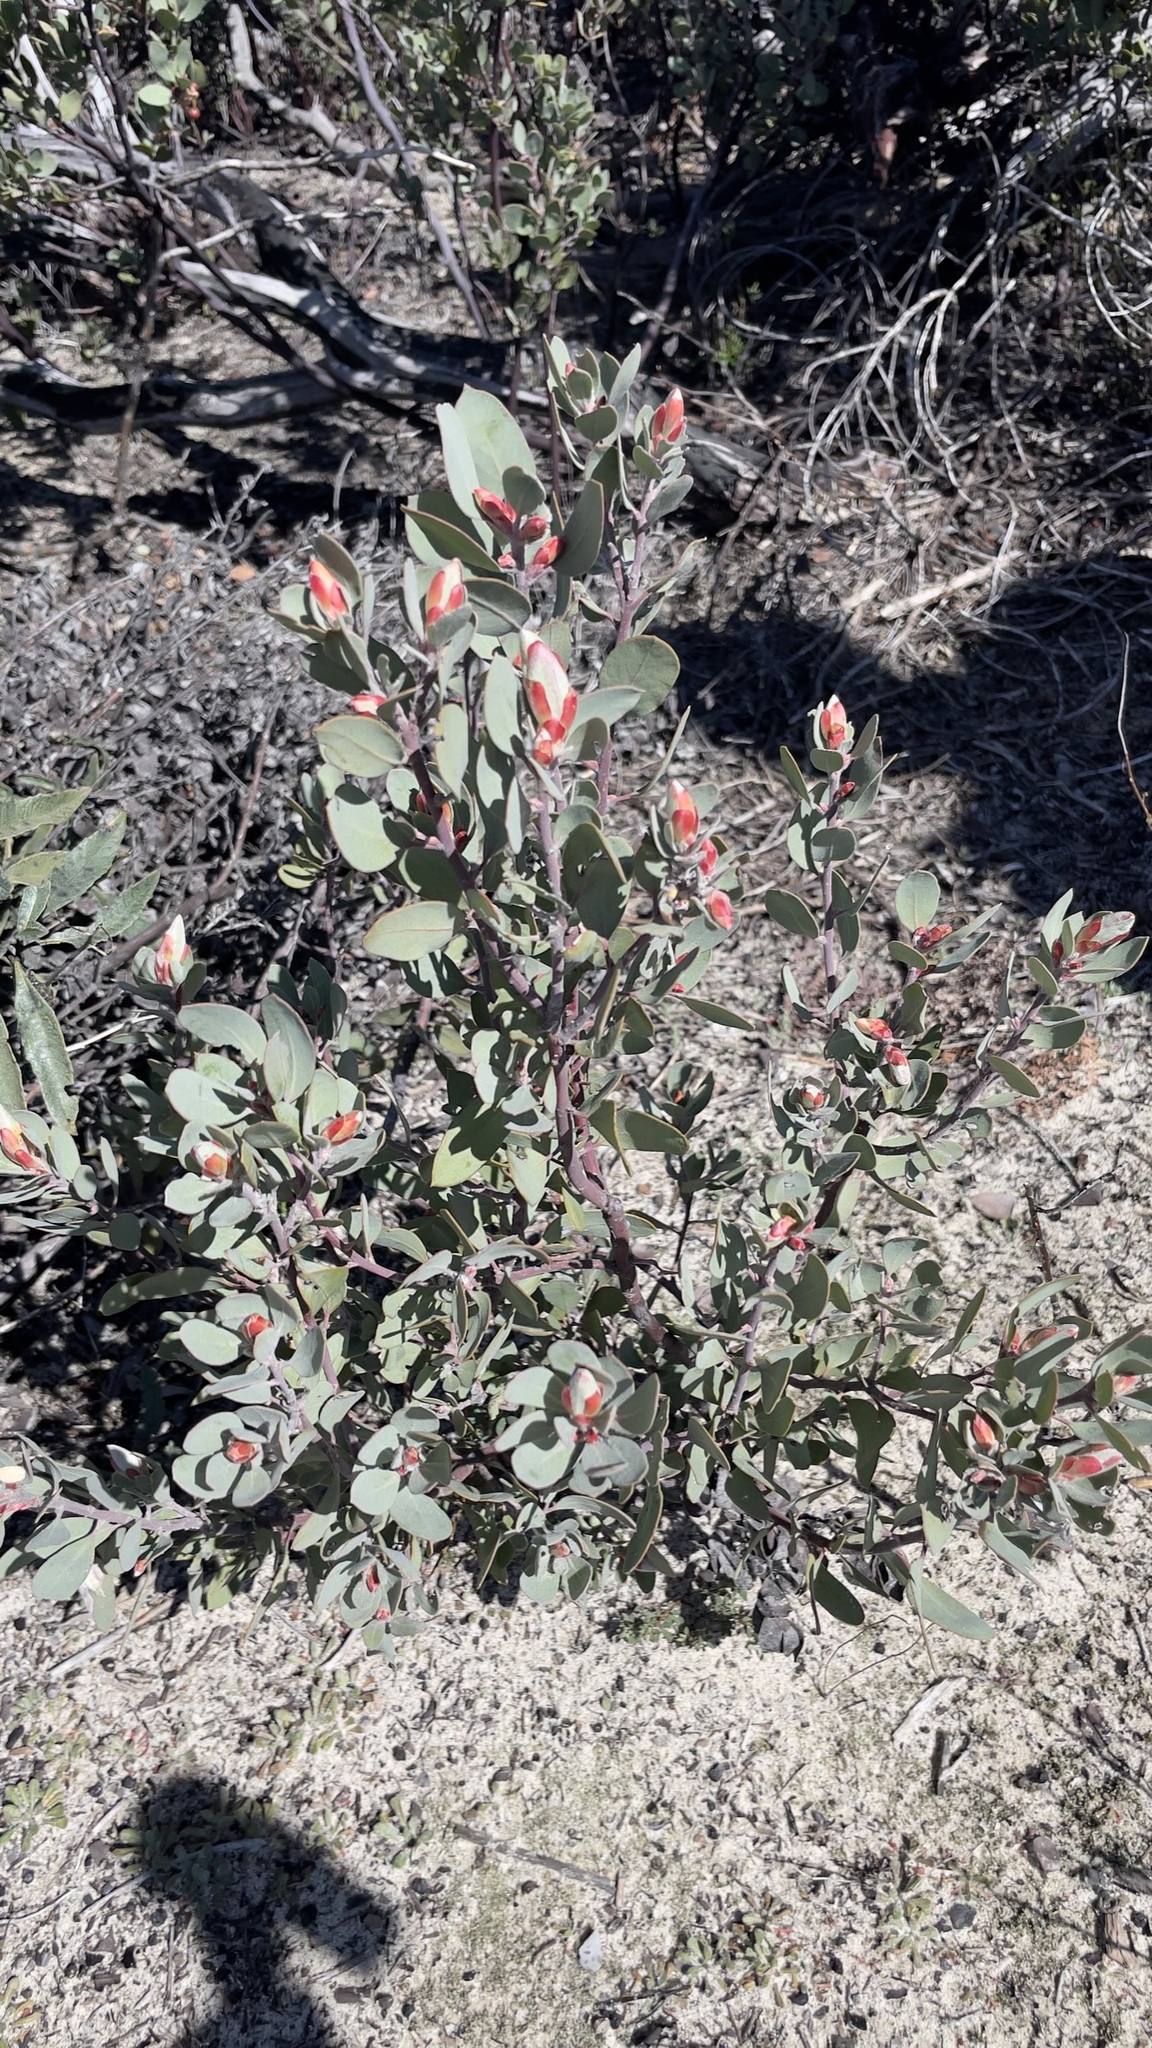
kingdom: Plantae
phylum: Tracheophyta
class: Magnoliopsida
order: Ericales
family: Ericaceae
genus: Arctostaphylos
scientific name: Arctostaphylos silvicola
